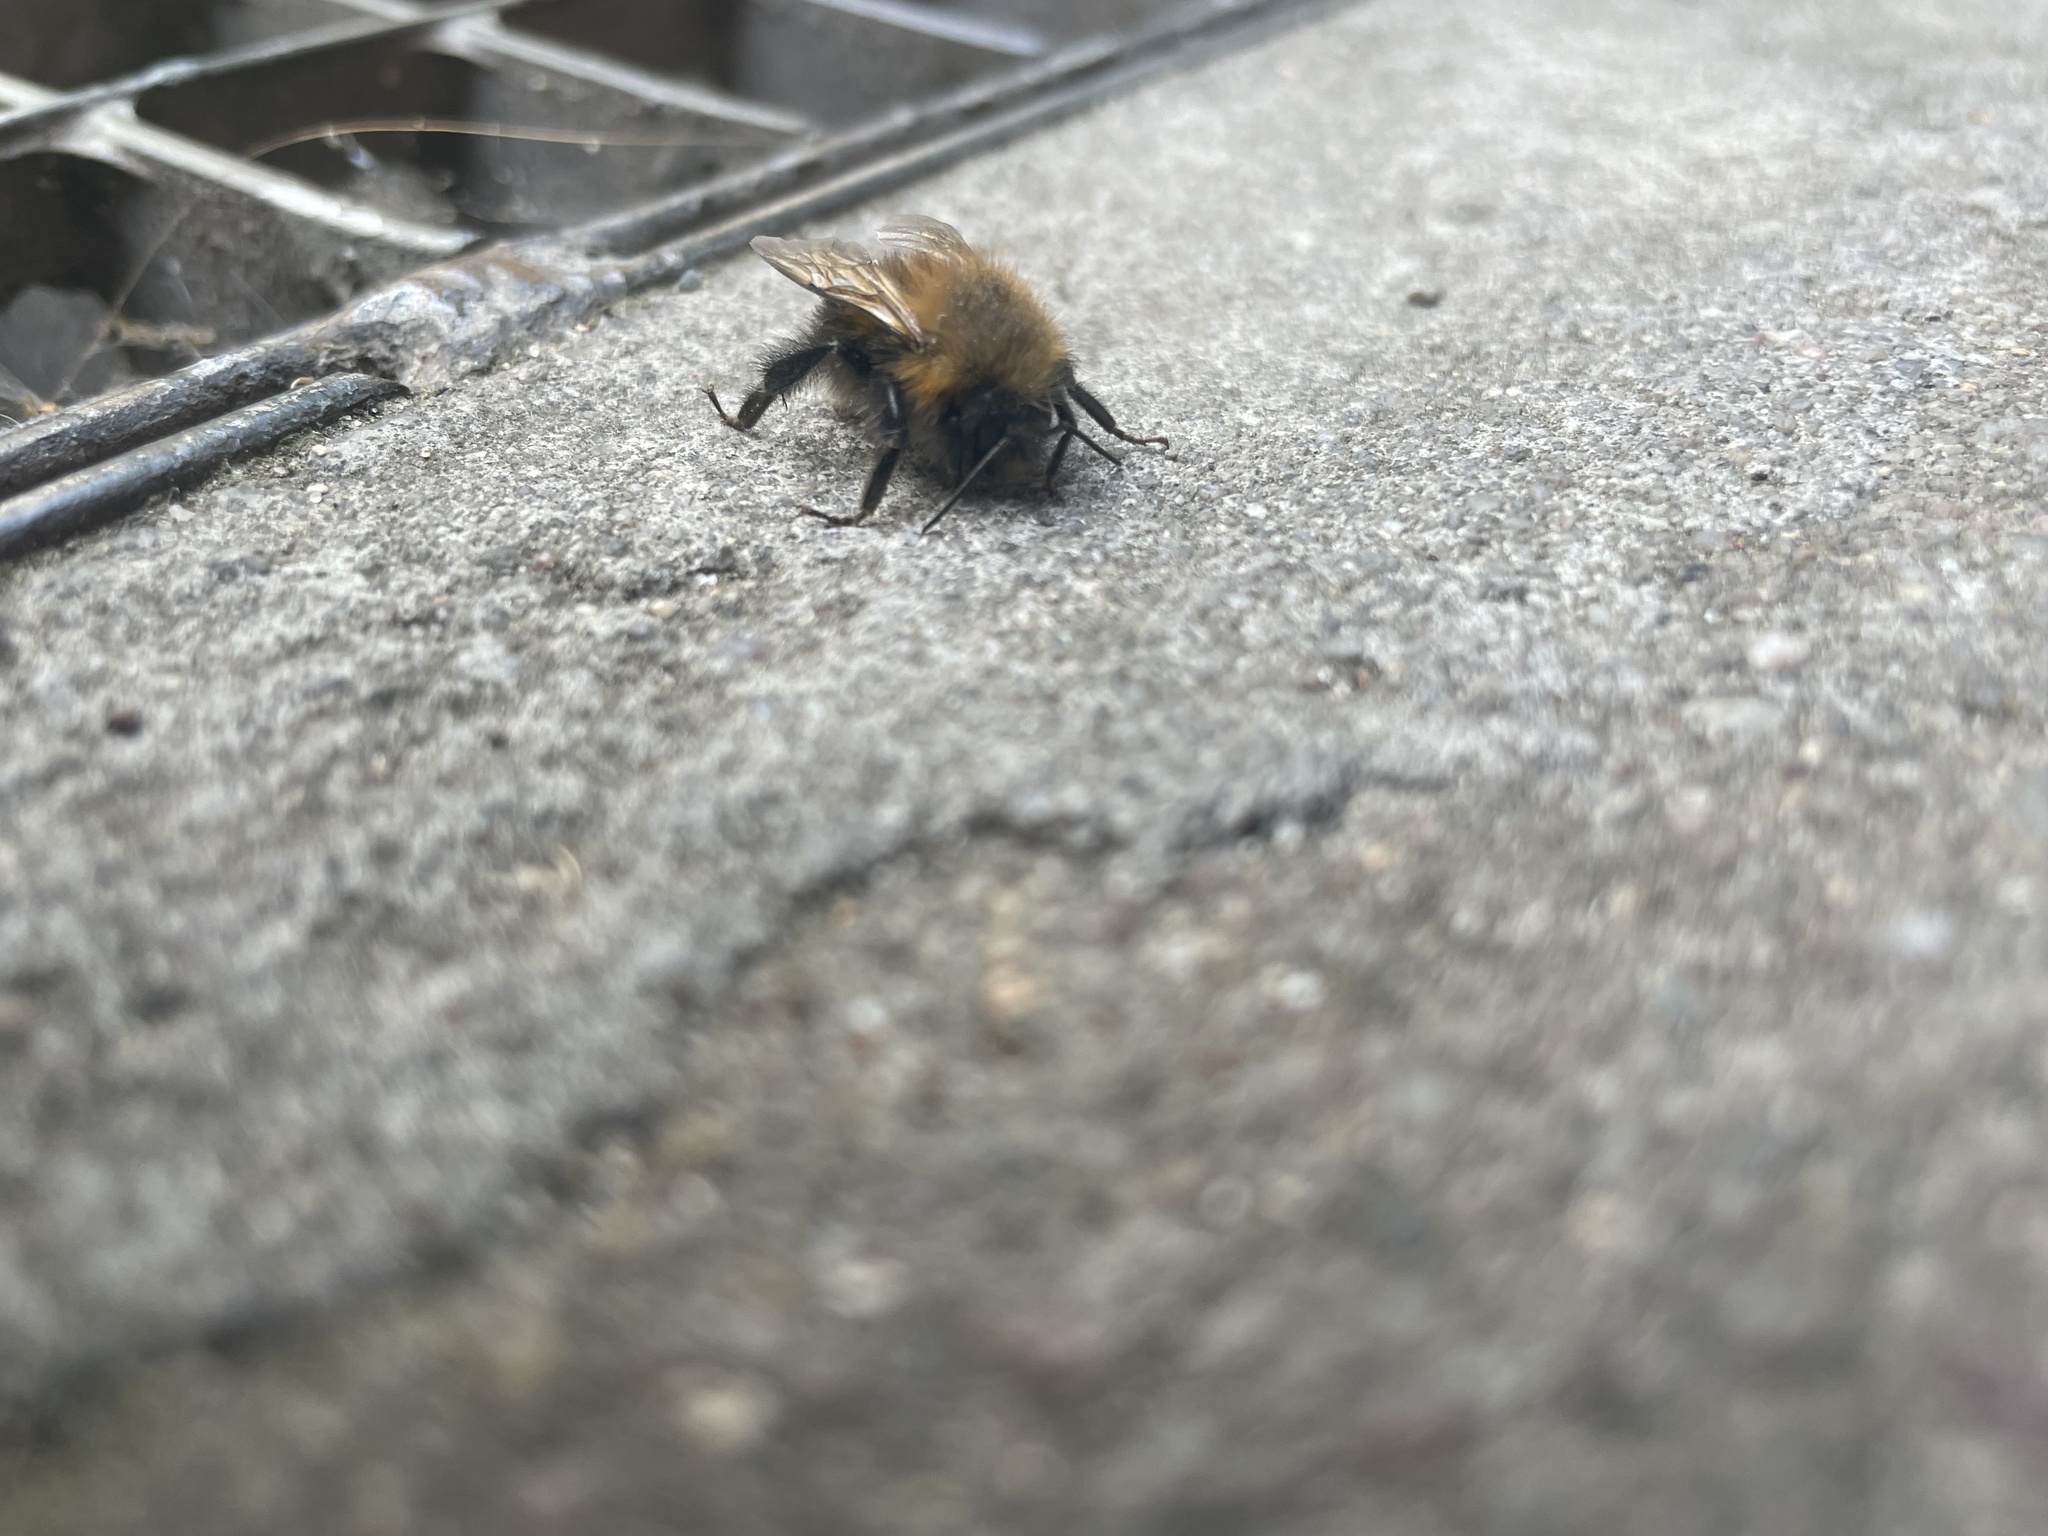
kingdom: Animalia
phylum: Arthropoda
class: Insecta
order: Hymenoptera
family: Apidae
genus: Bombus
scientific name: Bombus hypnorum
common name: New garden bumblebee
